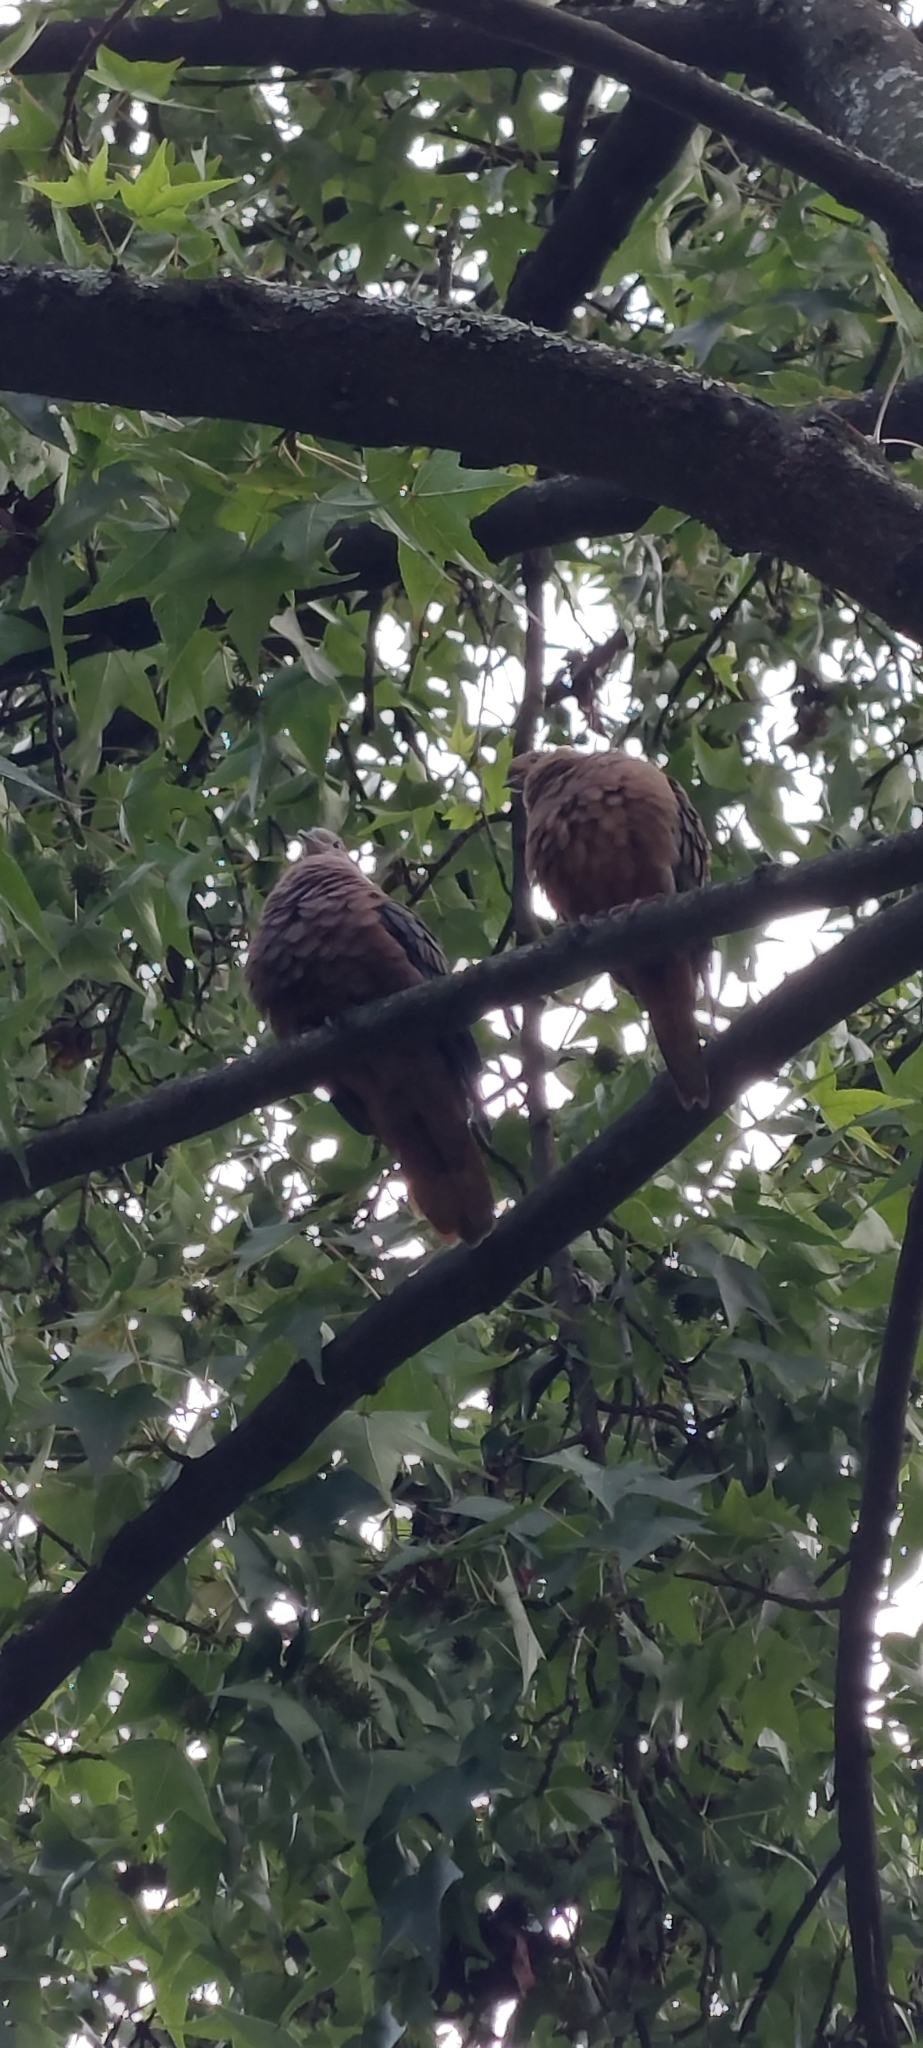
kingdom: Animalia
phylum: Chordata
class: Aves
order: Columbiformes
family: Columbidae
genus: Zenaida
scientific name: Zenaida auriculata
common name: Eared dove
